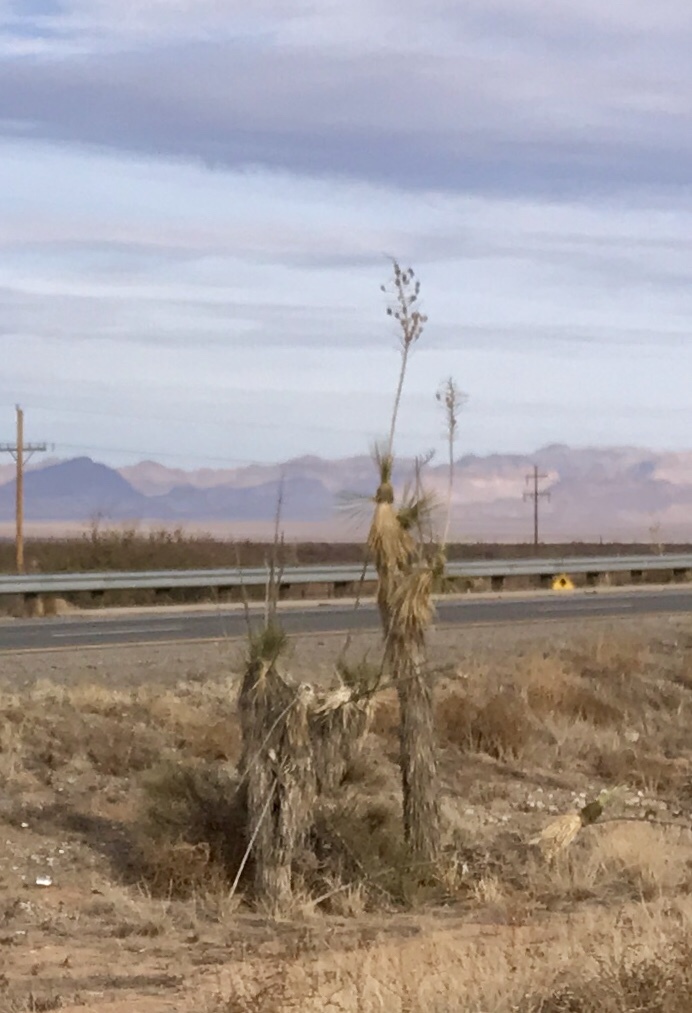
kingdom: Plantae
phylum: Tracheophyta
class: Liliopsida
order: Asparagales
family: Asparagaceae
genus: Yucca
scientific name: Yucca elata
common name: Palmella
